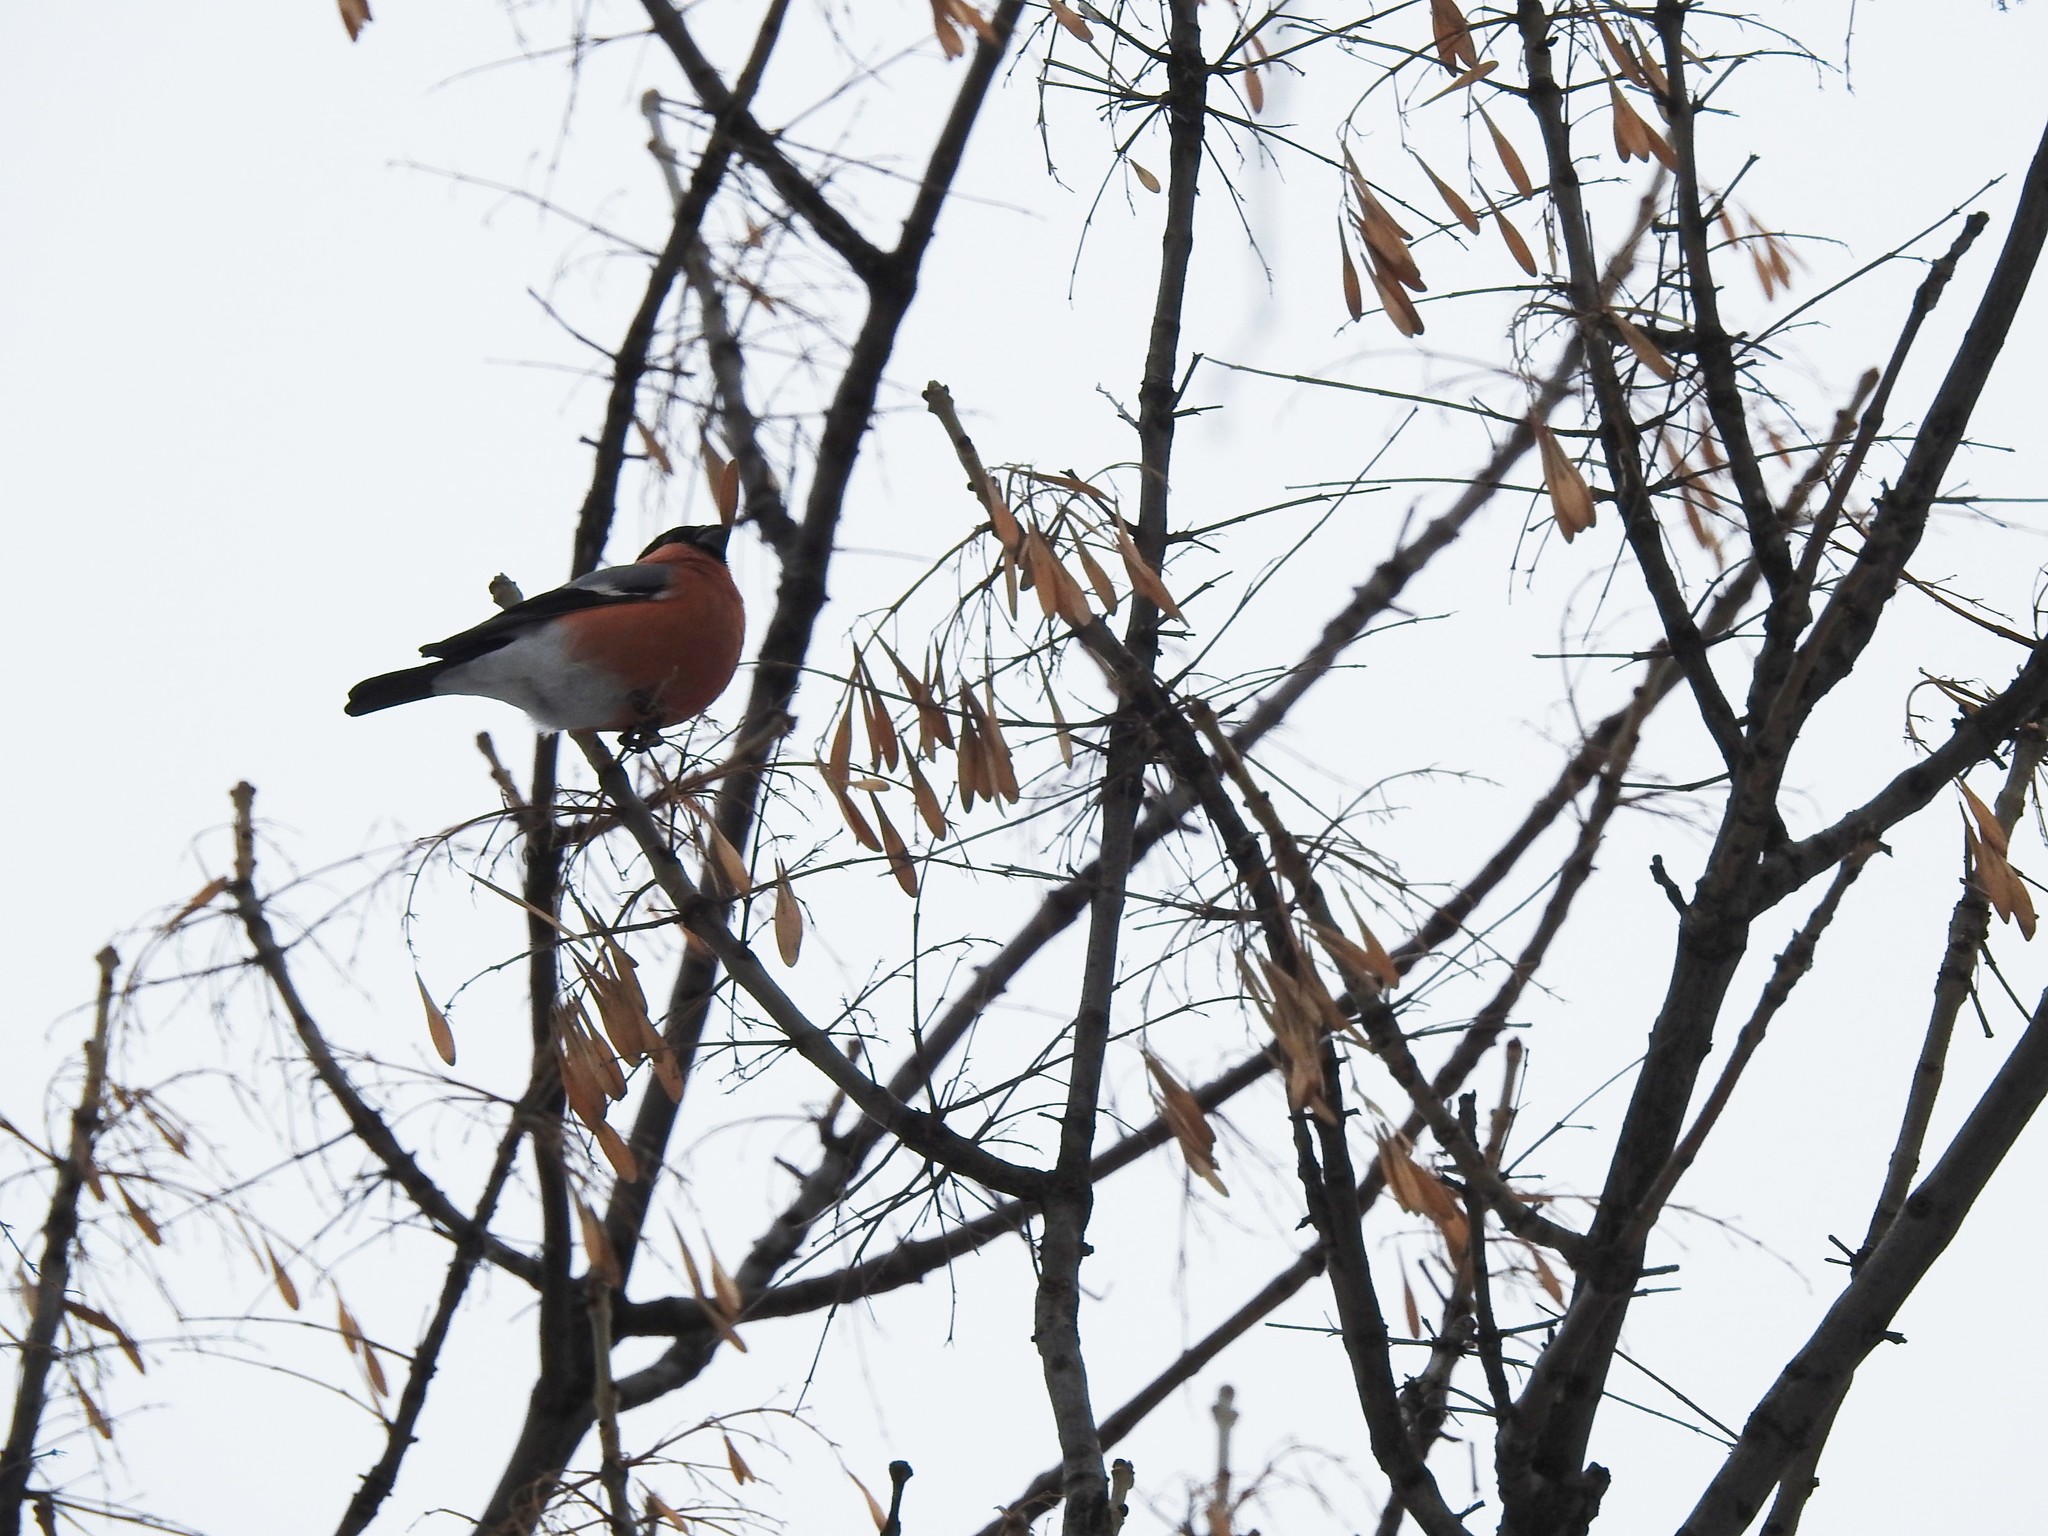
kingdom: Animalia
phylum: Chordata
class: Aves
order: Passeriformes
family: Fringillidae
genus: Pyrrhula
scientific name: Pyrrhula pyrrhula
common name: Eurasian bullfinch
